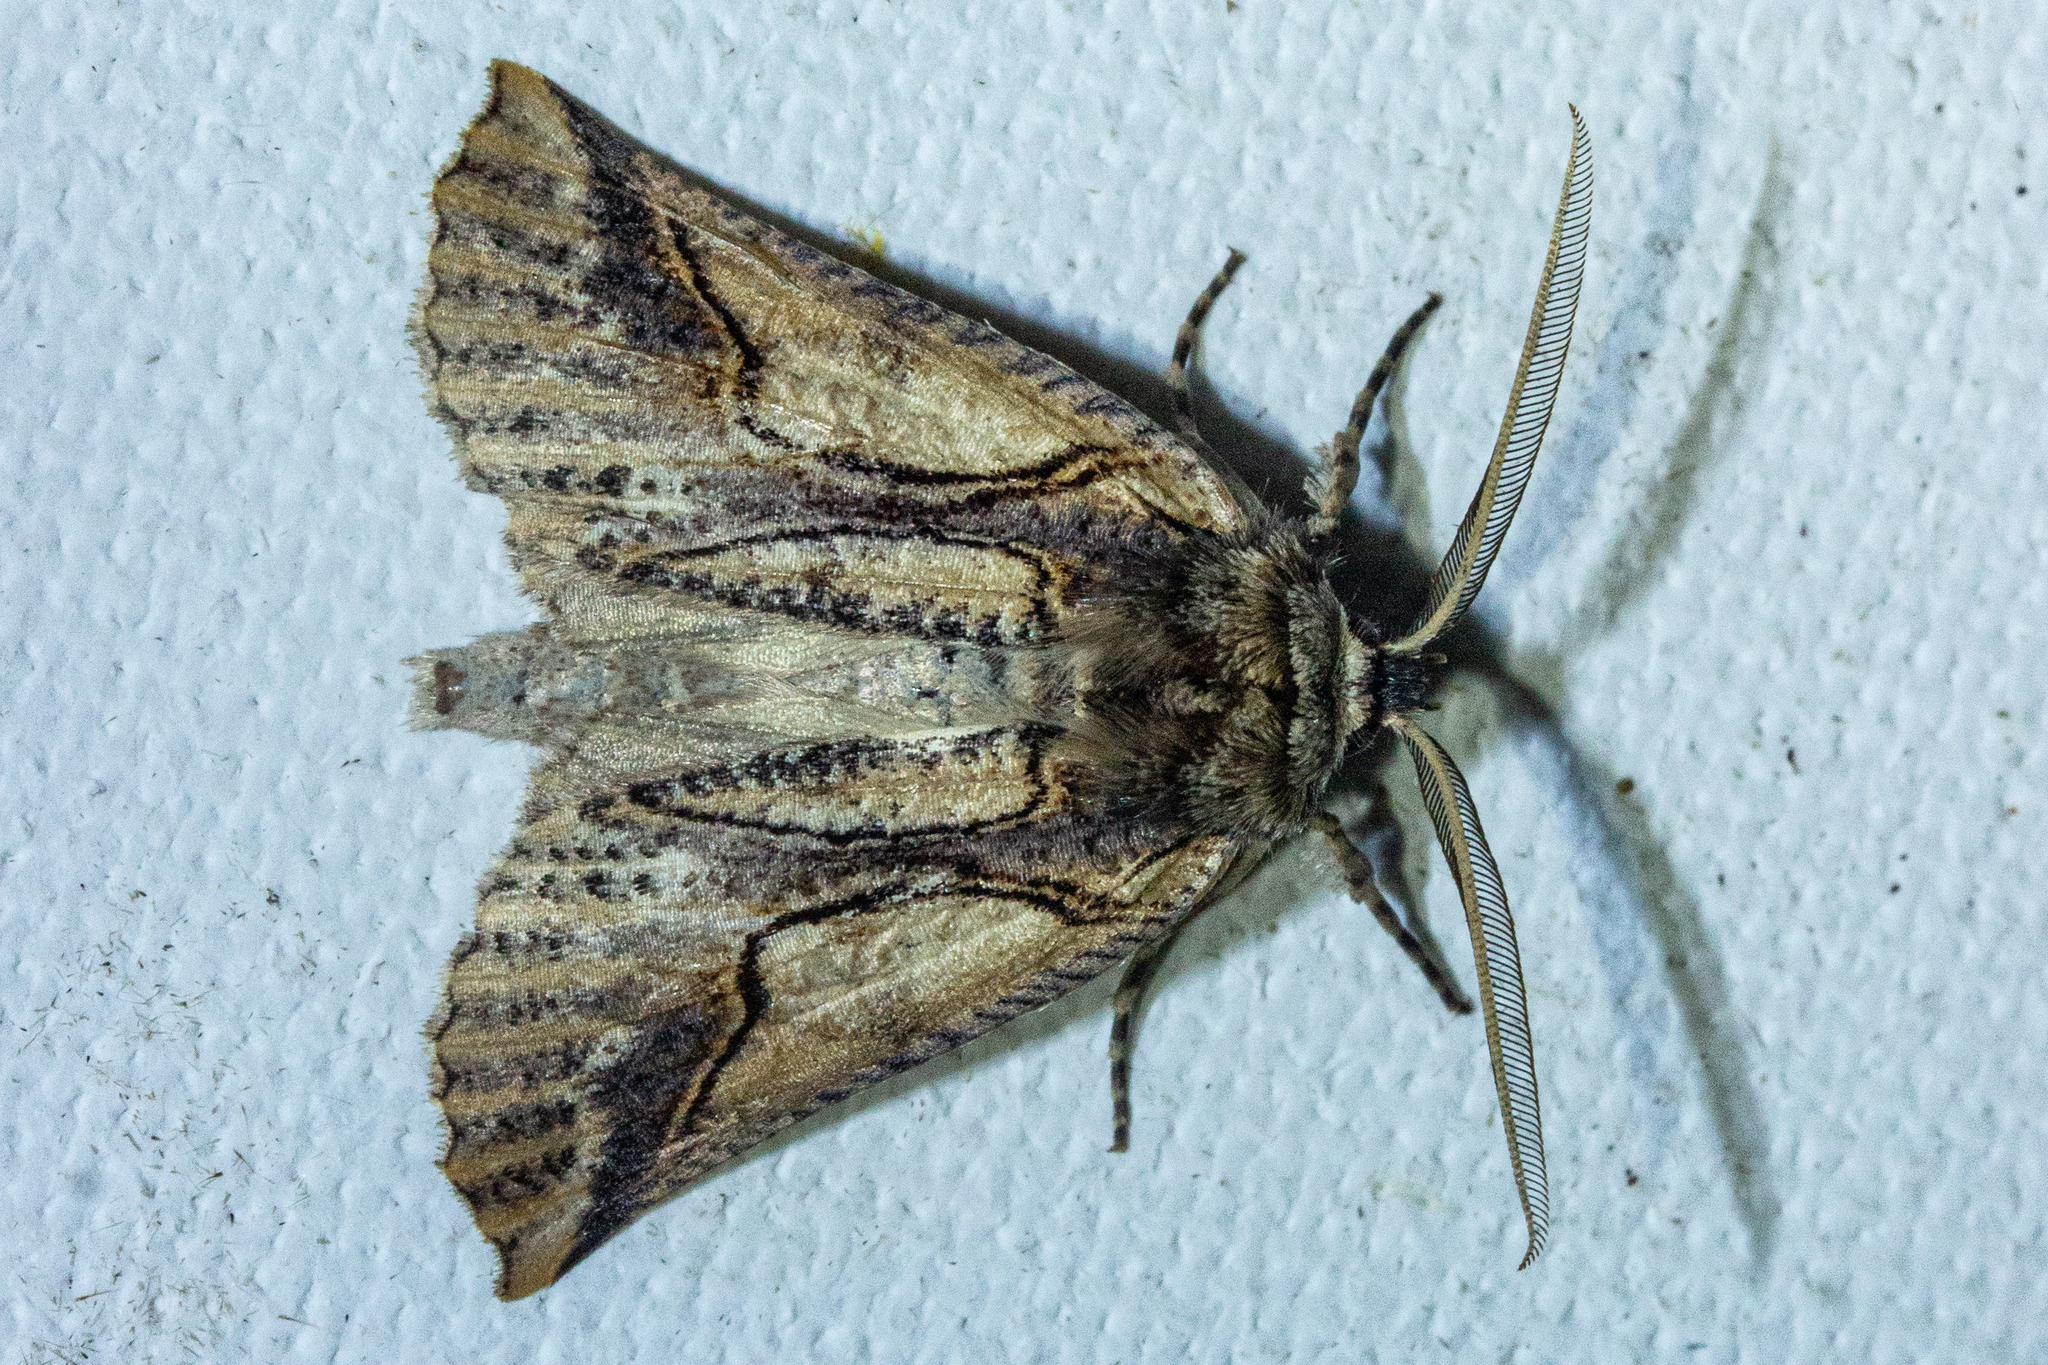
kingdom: Animalia
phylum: Arthropoda
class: Insecta
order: Lepidoptera
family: Geometridae
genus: Declana
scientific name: Declana
